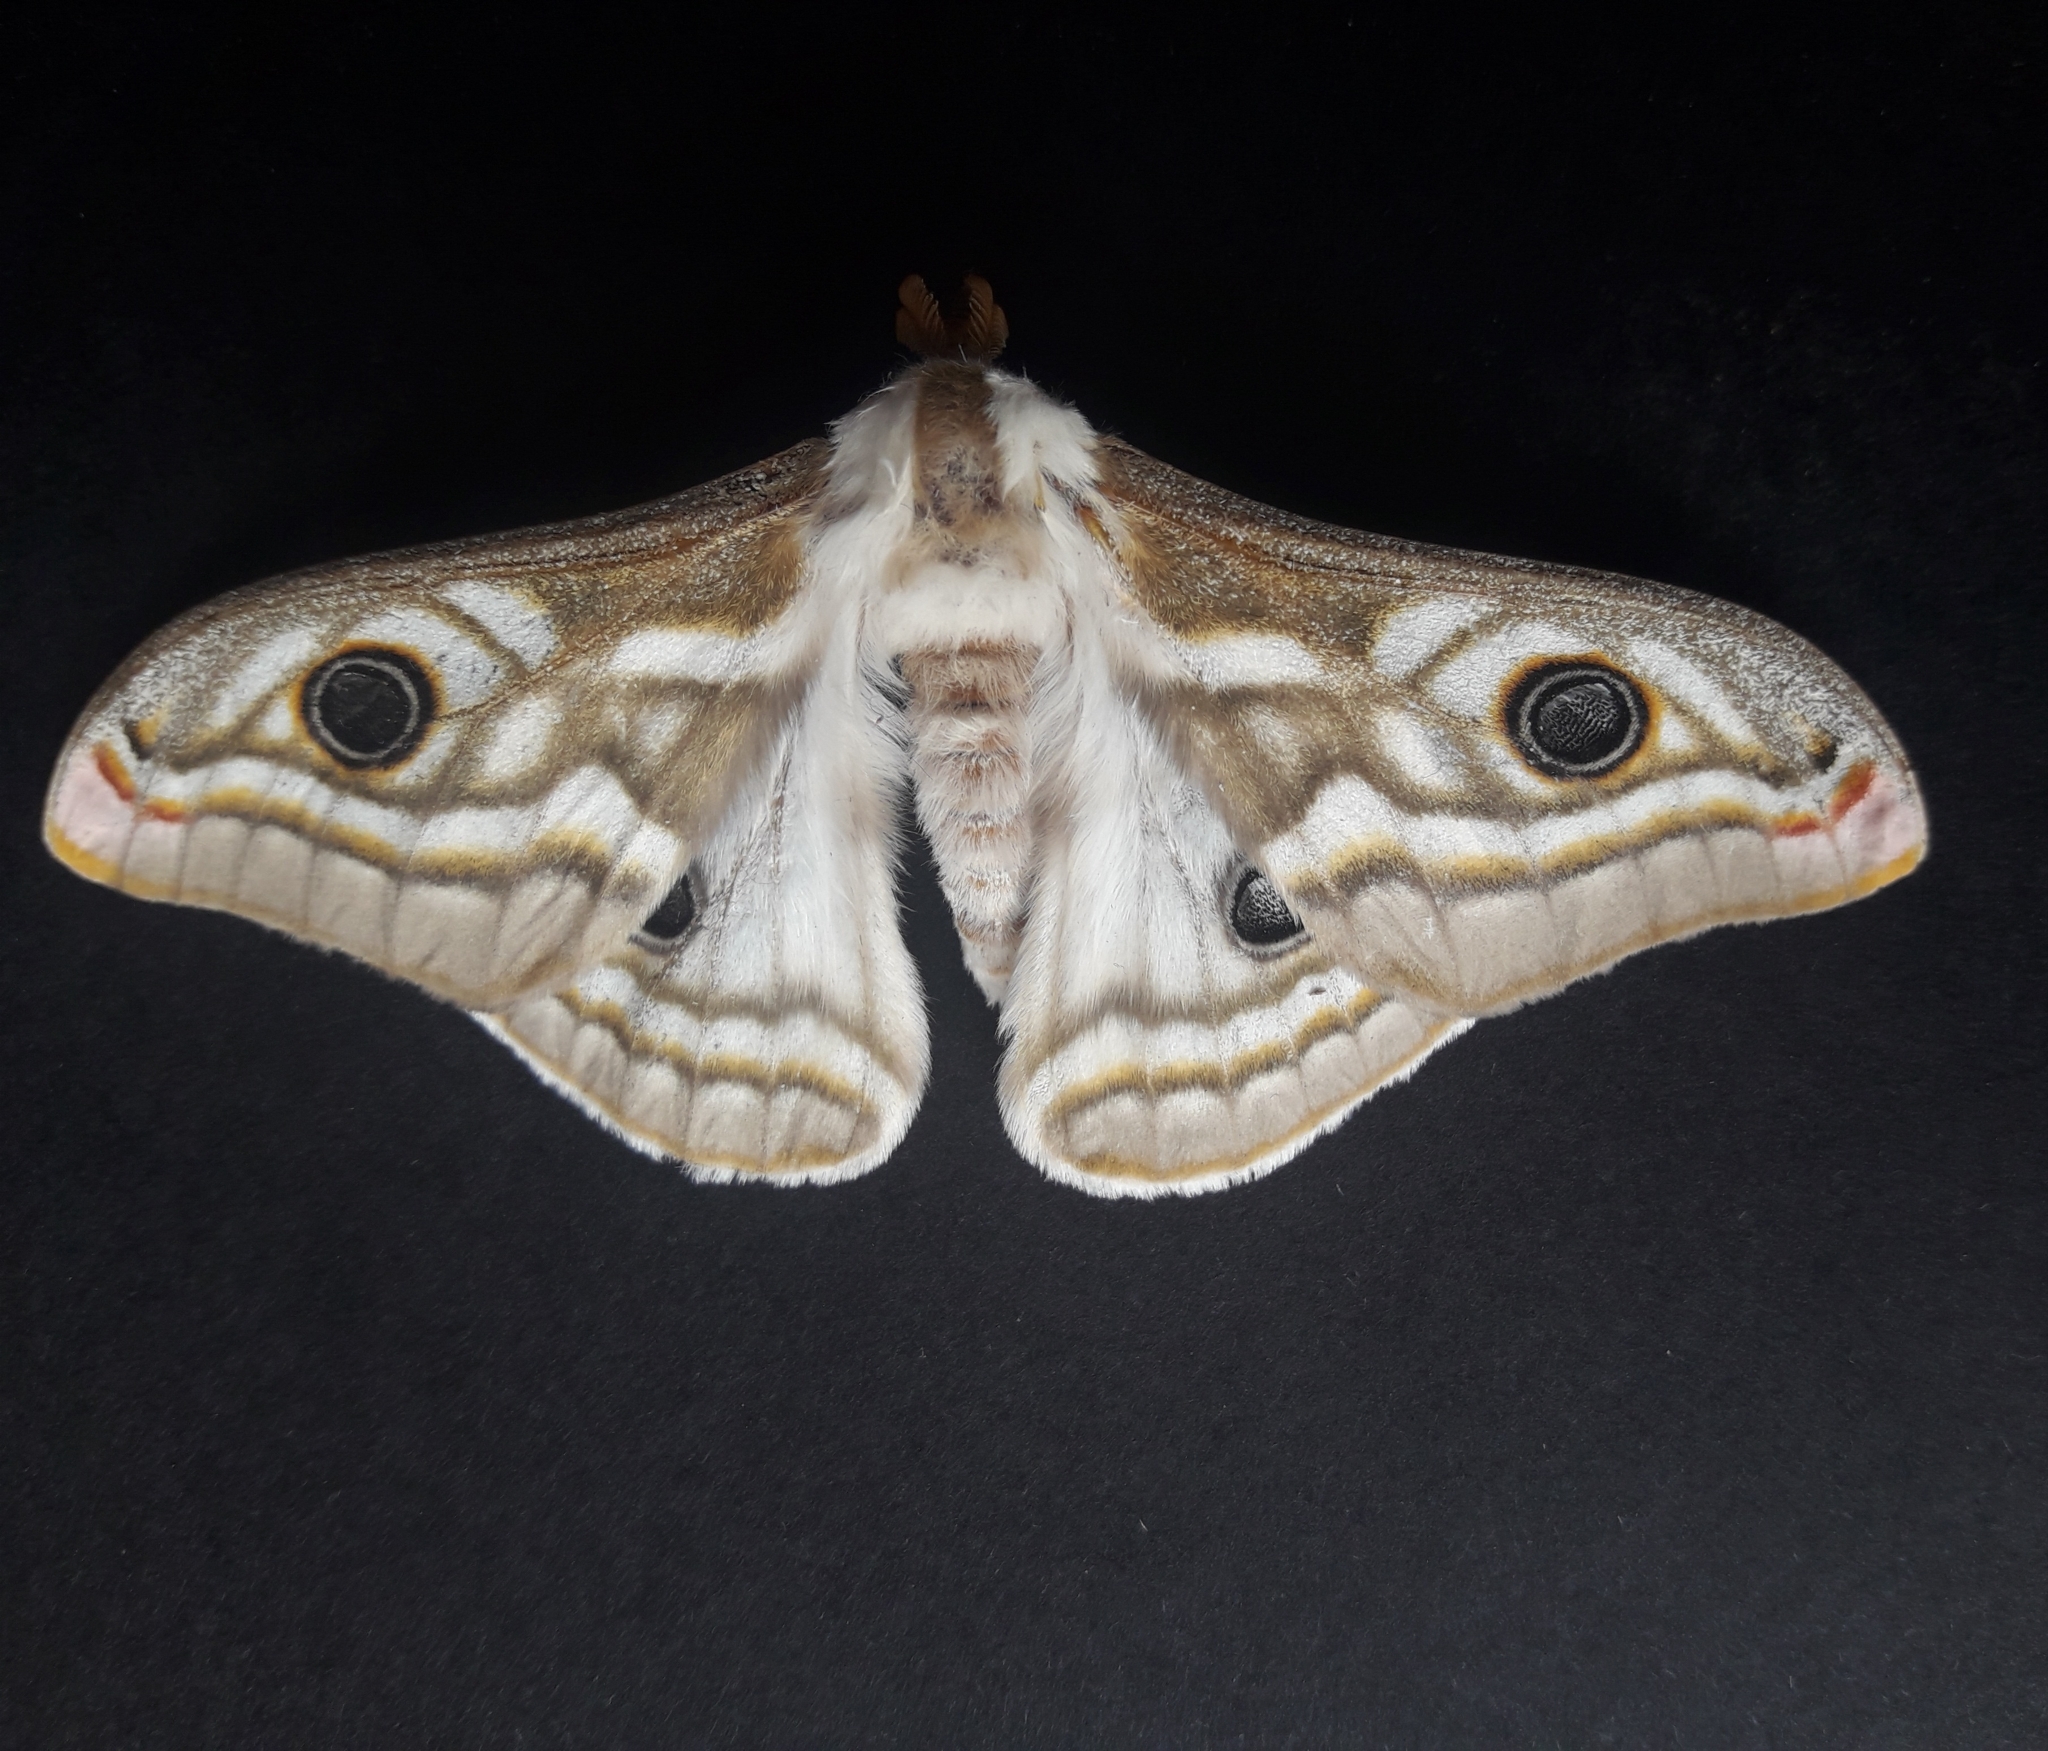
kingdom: Animalia
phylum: Arthropoda
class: Insecta
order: Lepidoptera
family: Saturniidae
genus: Heniocha
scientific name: Heniocha apollonia
